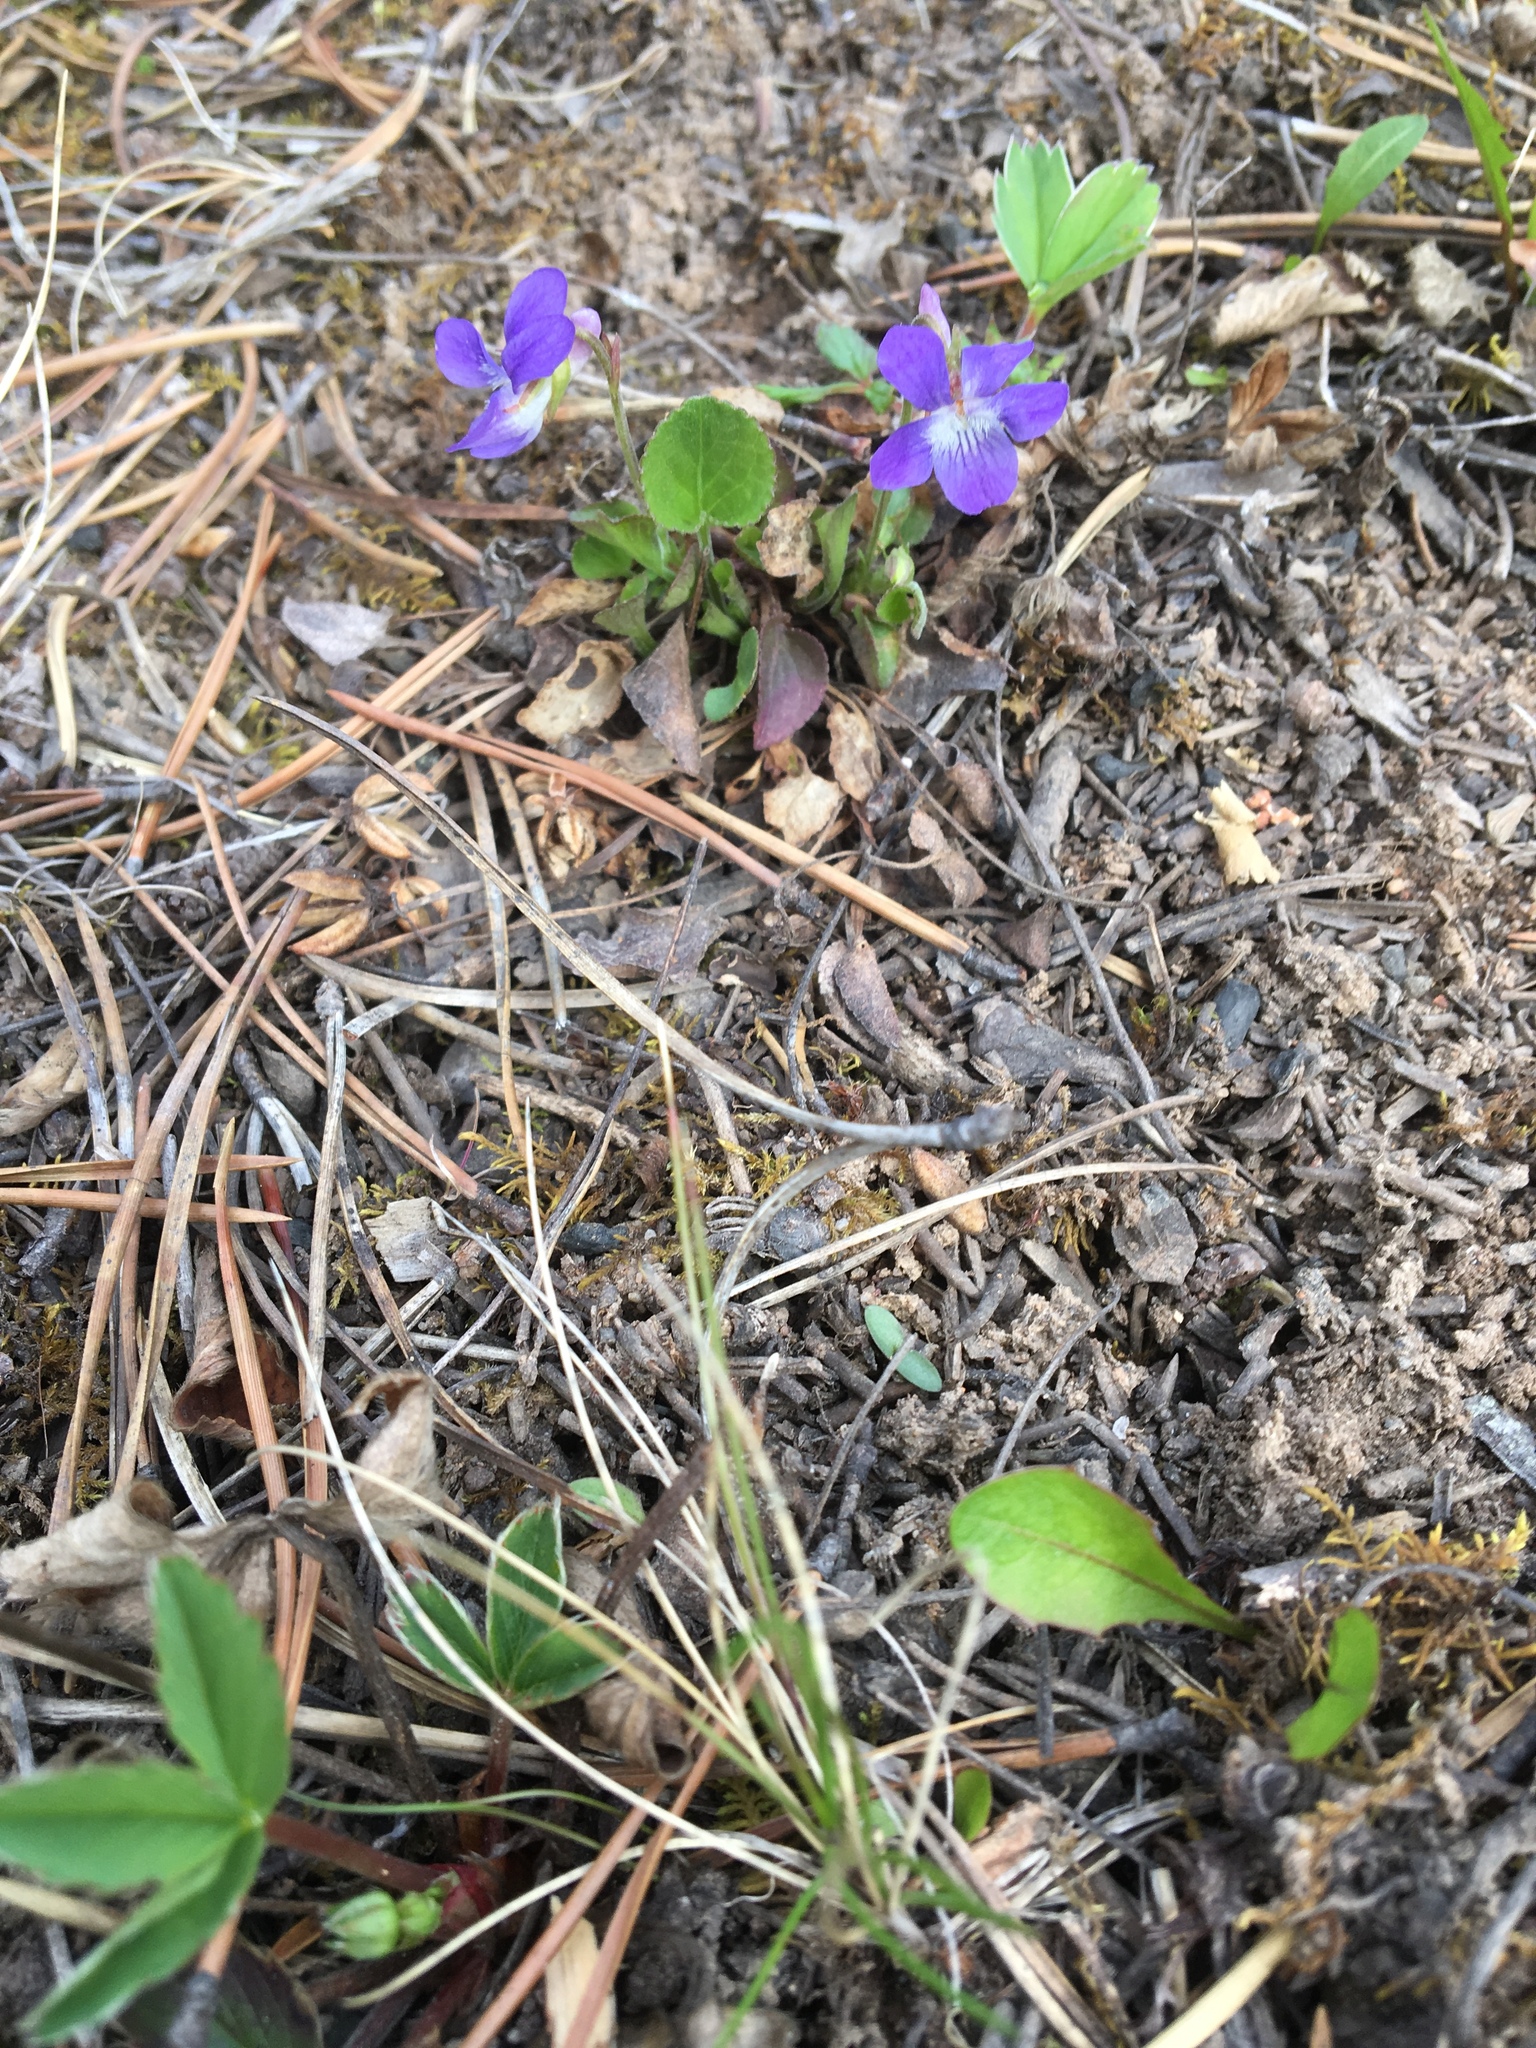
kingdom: Plantae
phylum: Tracheophyta
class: Magnoliopsida
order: Malpighiales
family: Violaceae
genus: Viola
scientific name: Viola adunca
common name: Sand violet
